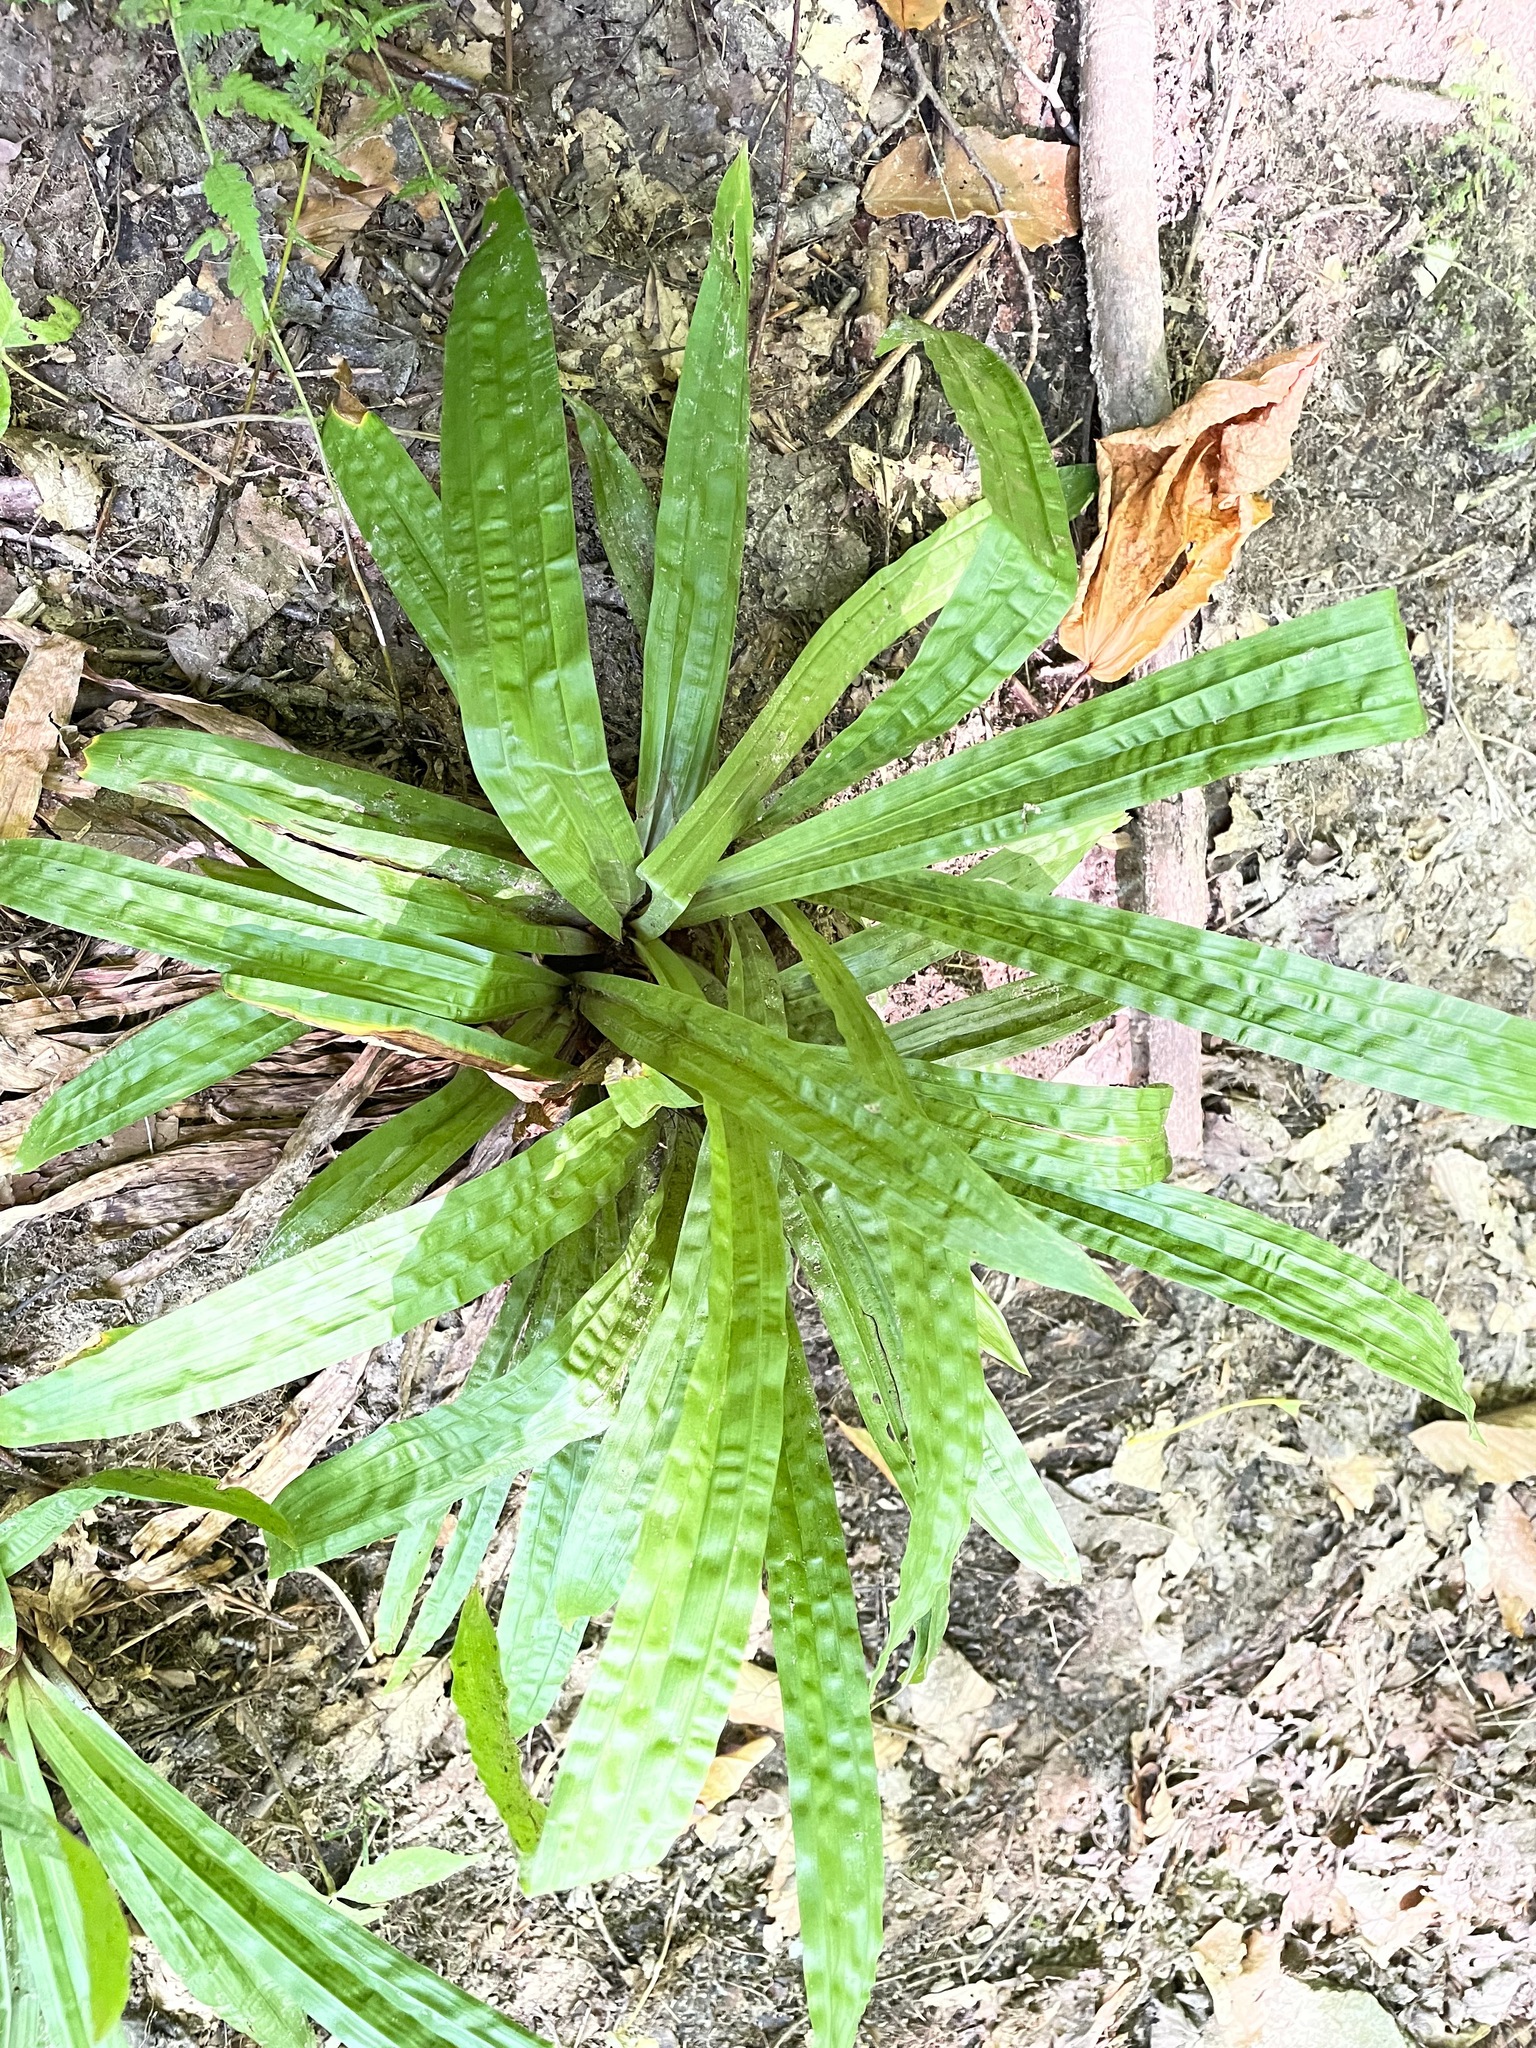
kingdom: Plantae
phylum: Tracheophyta
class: Liliopsida
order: Poales
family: Cyperaceae
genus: Carex
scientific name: Carex plantaginea
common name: Plantain-leaved sedge
